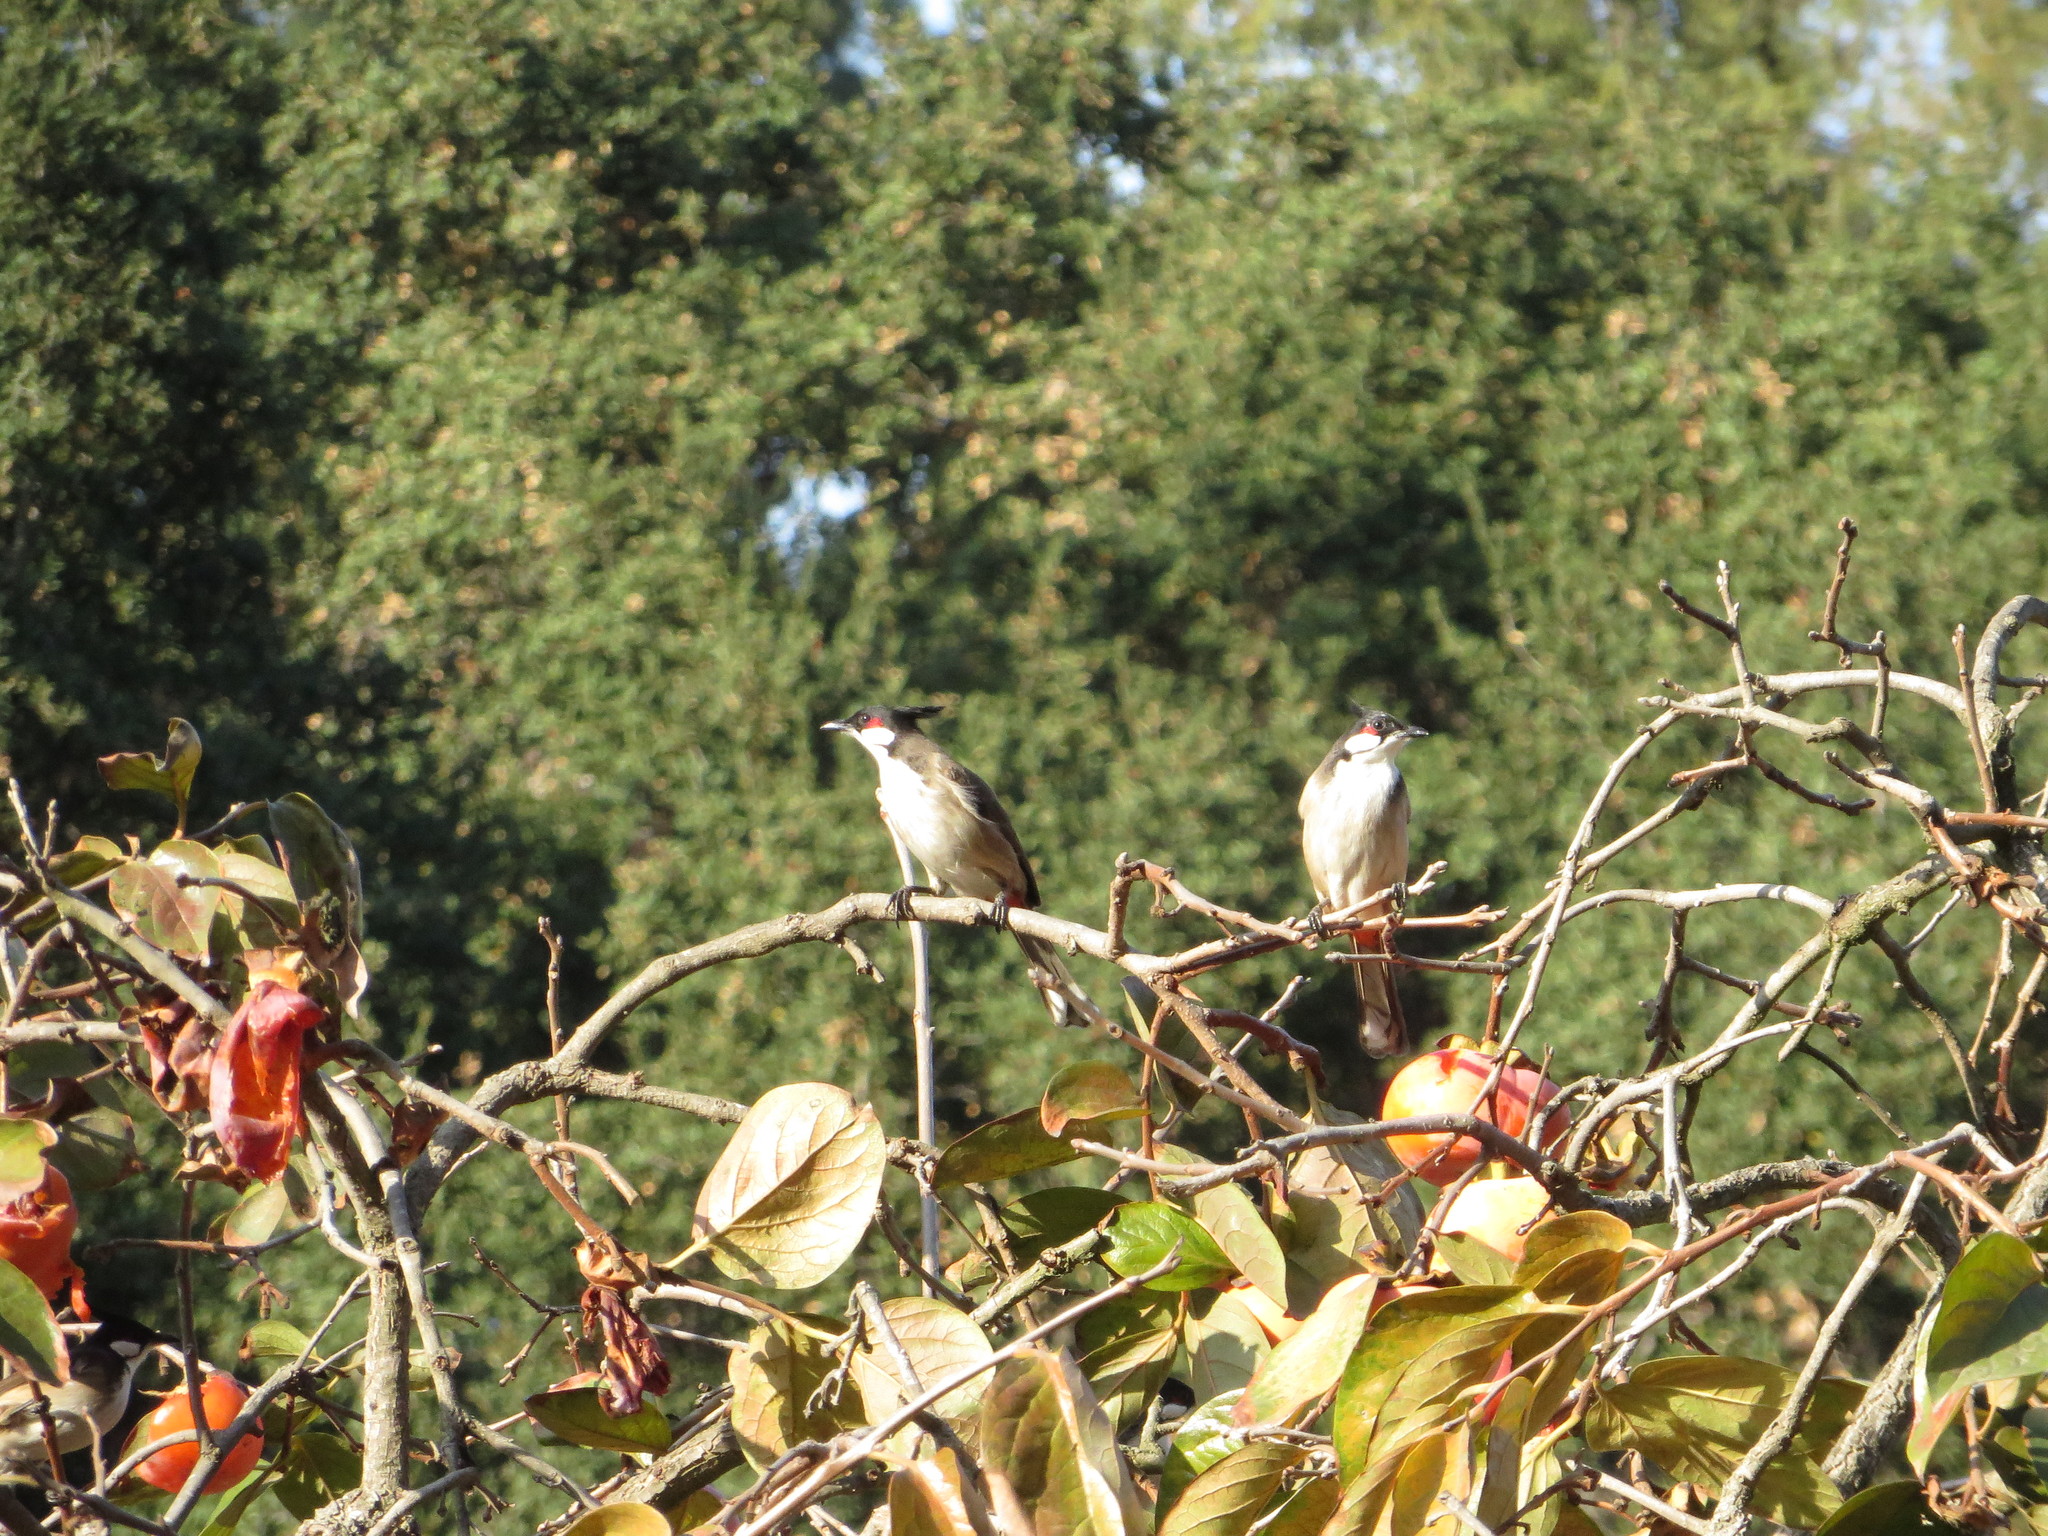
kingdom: Animalia
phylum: Chordata
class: Aves
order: Passeriformes
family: Pycnonotidae
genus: Pycnonotus
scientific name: Pycnonotus jocosus
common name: Red-whiskered bulbul
